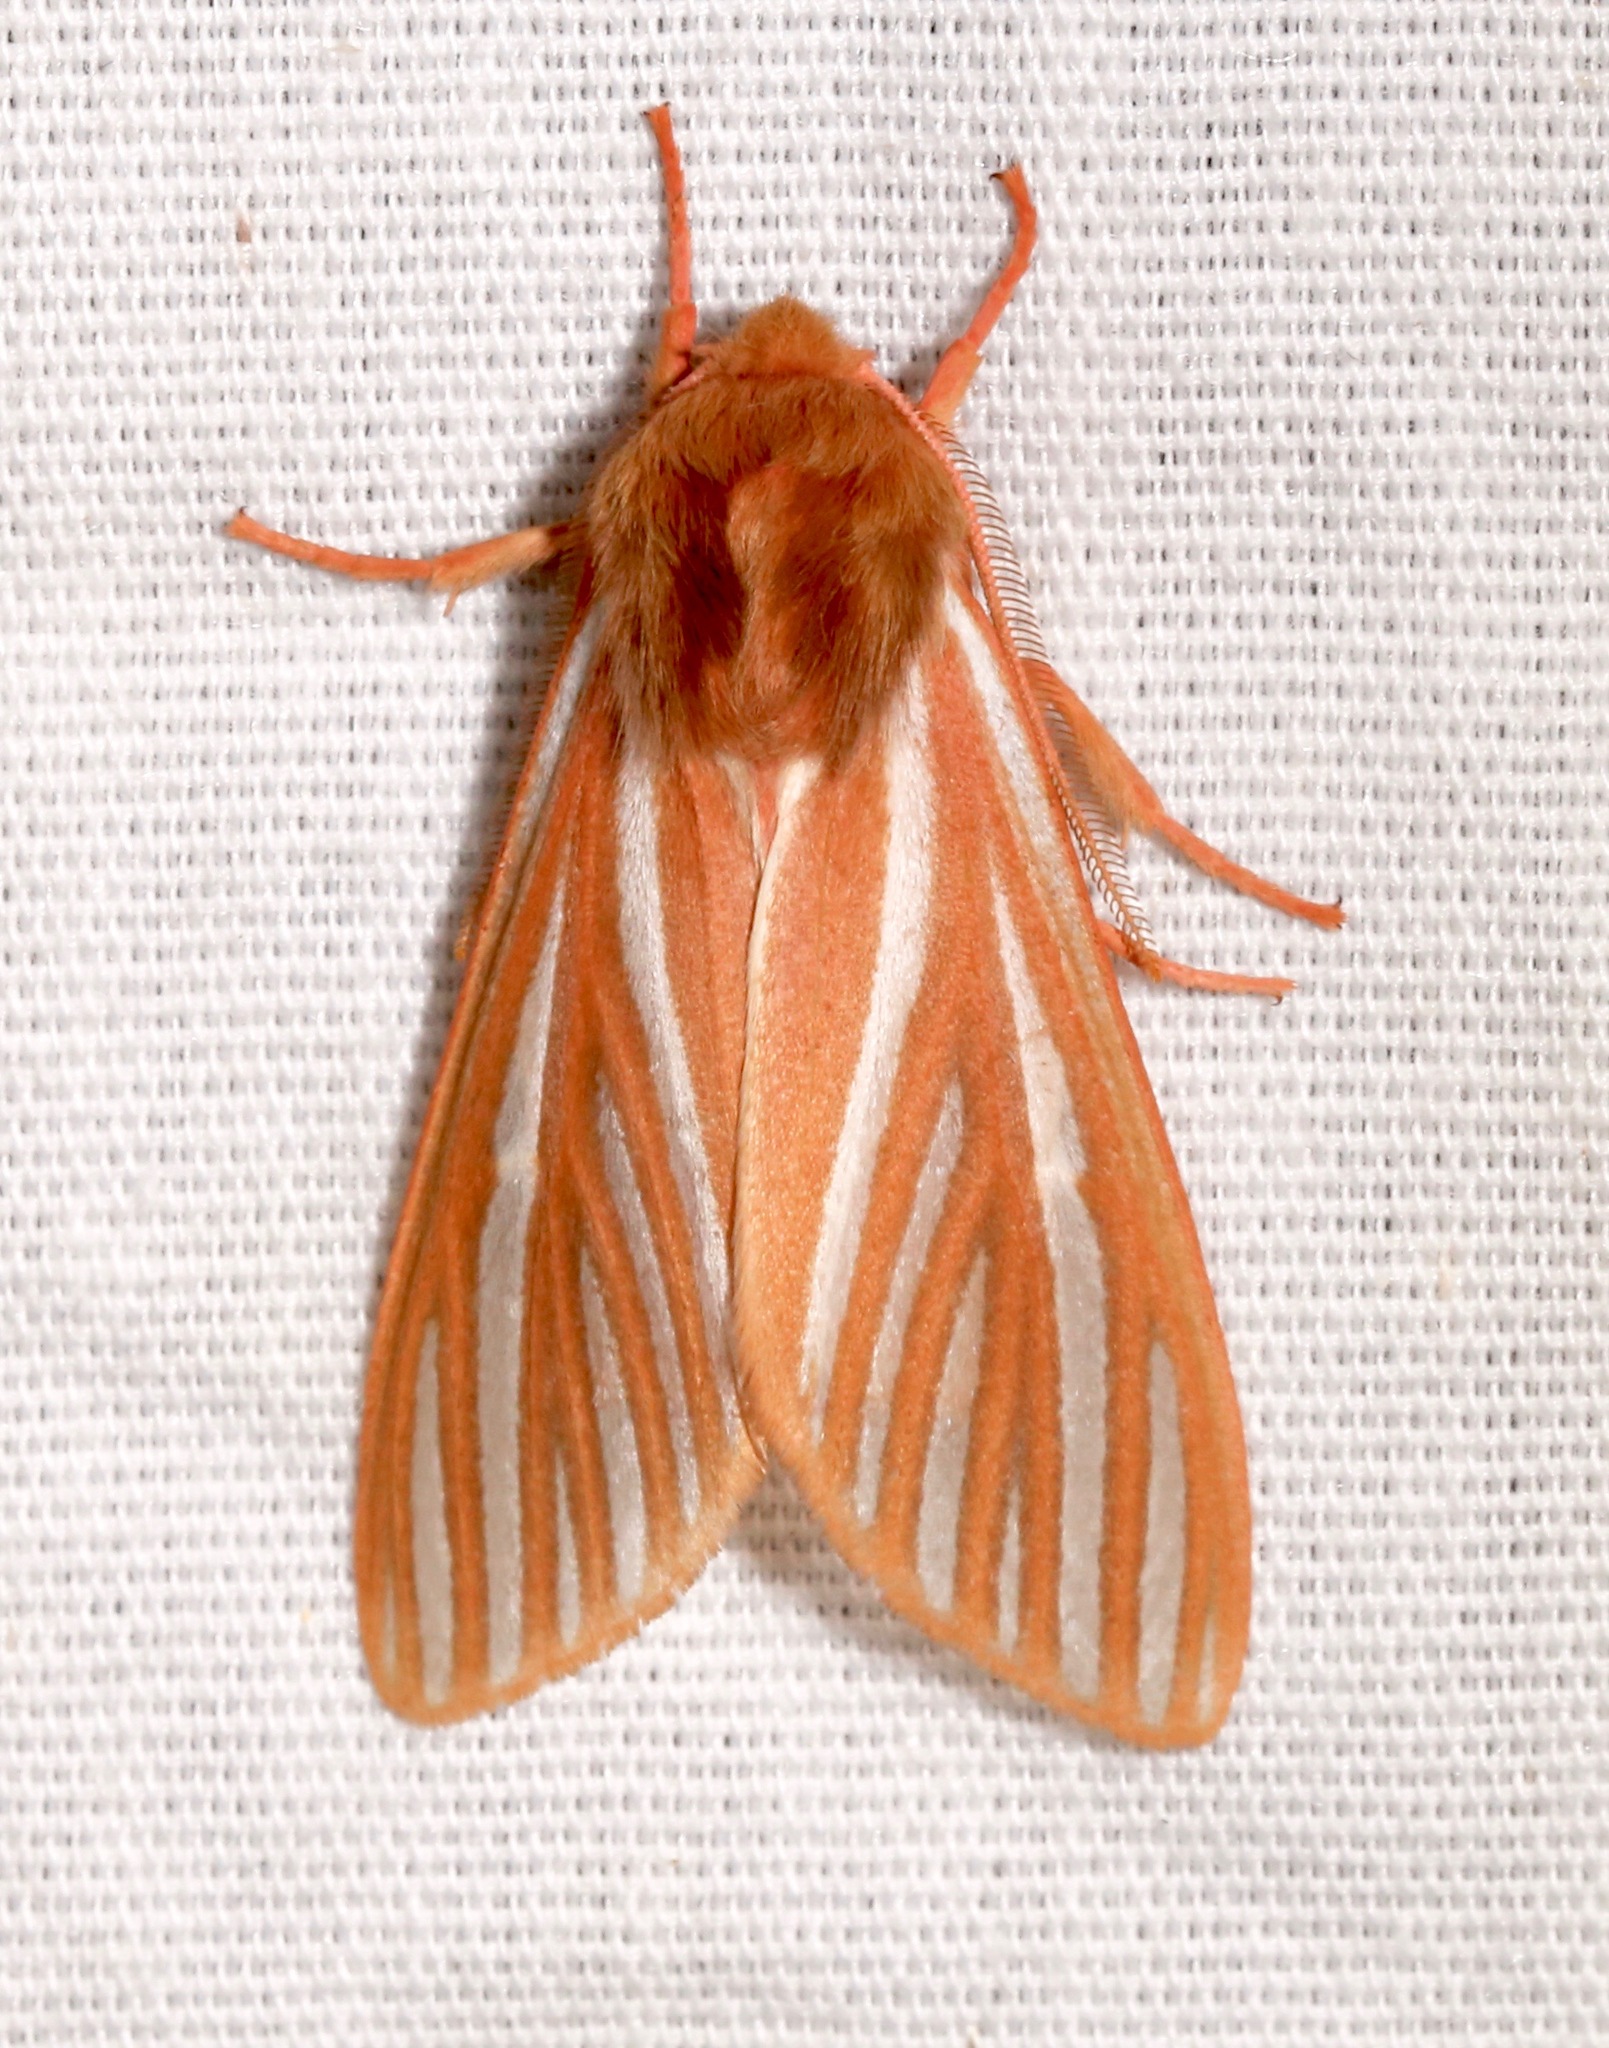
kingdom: Animalia
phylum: Arthropoda
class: Insecta
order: Lepidoptera
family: Erebidae
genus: Hemihyalea
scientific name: Hemihyalea ambigua
